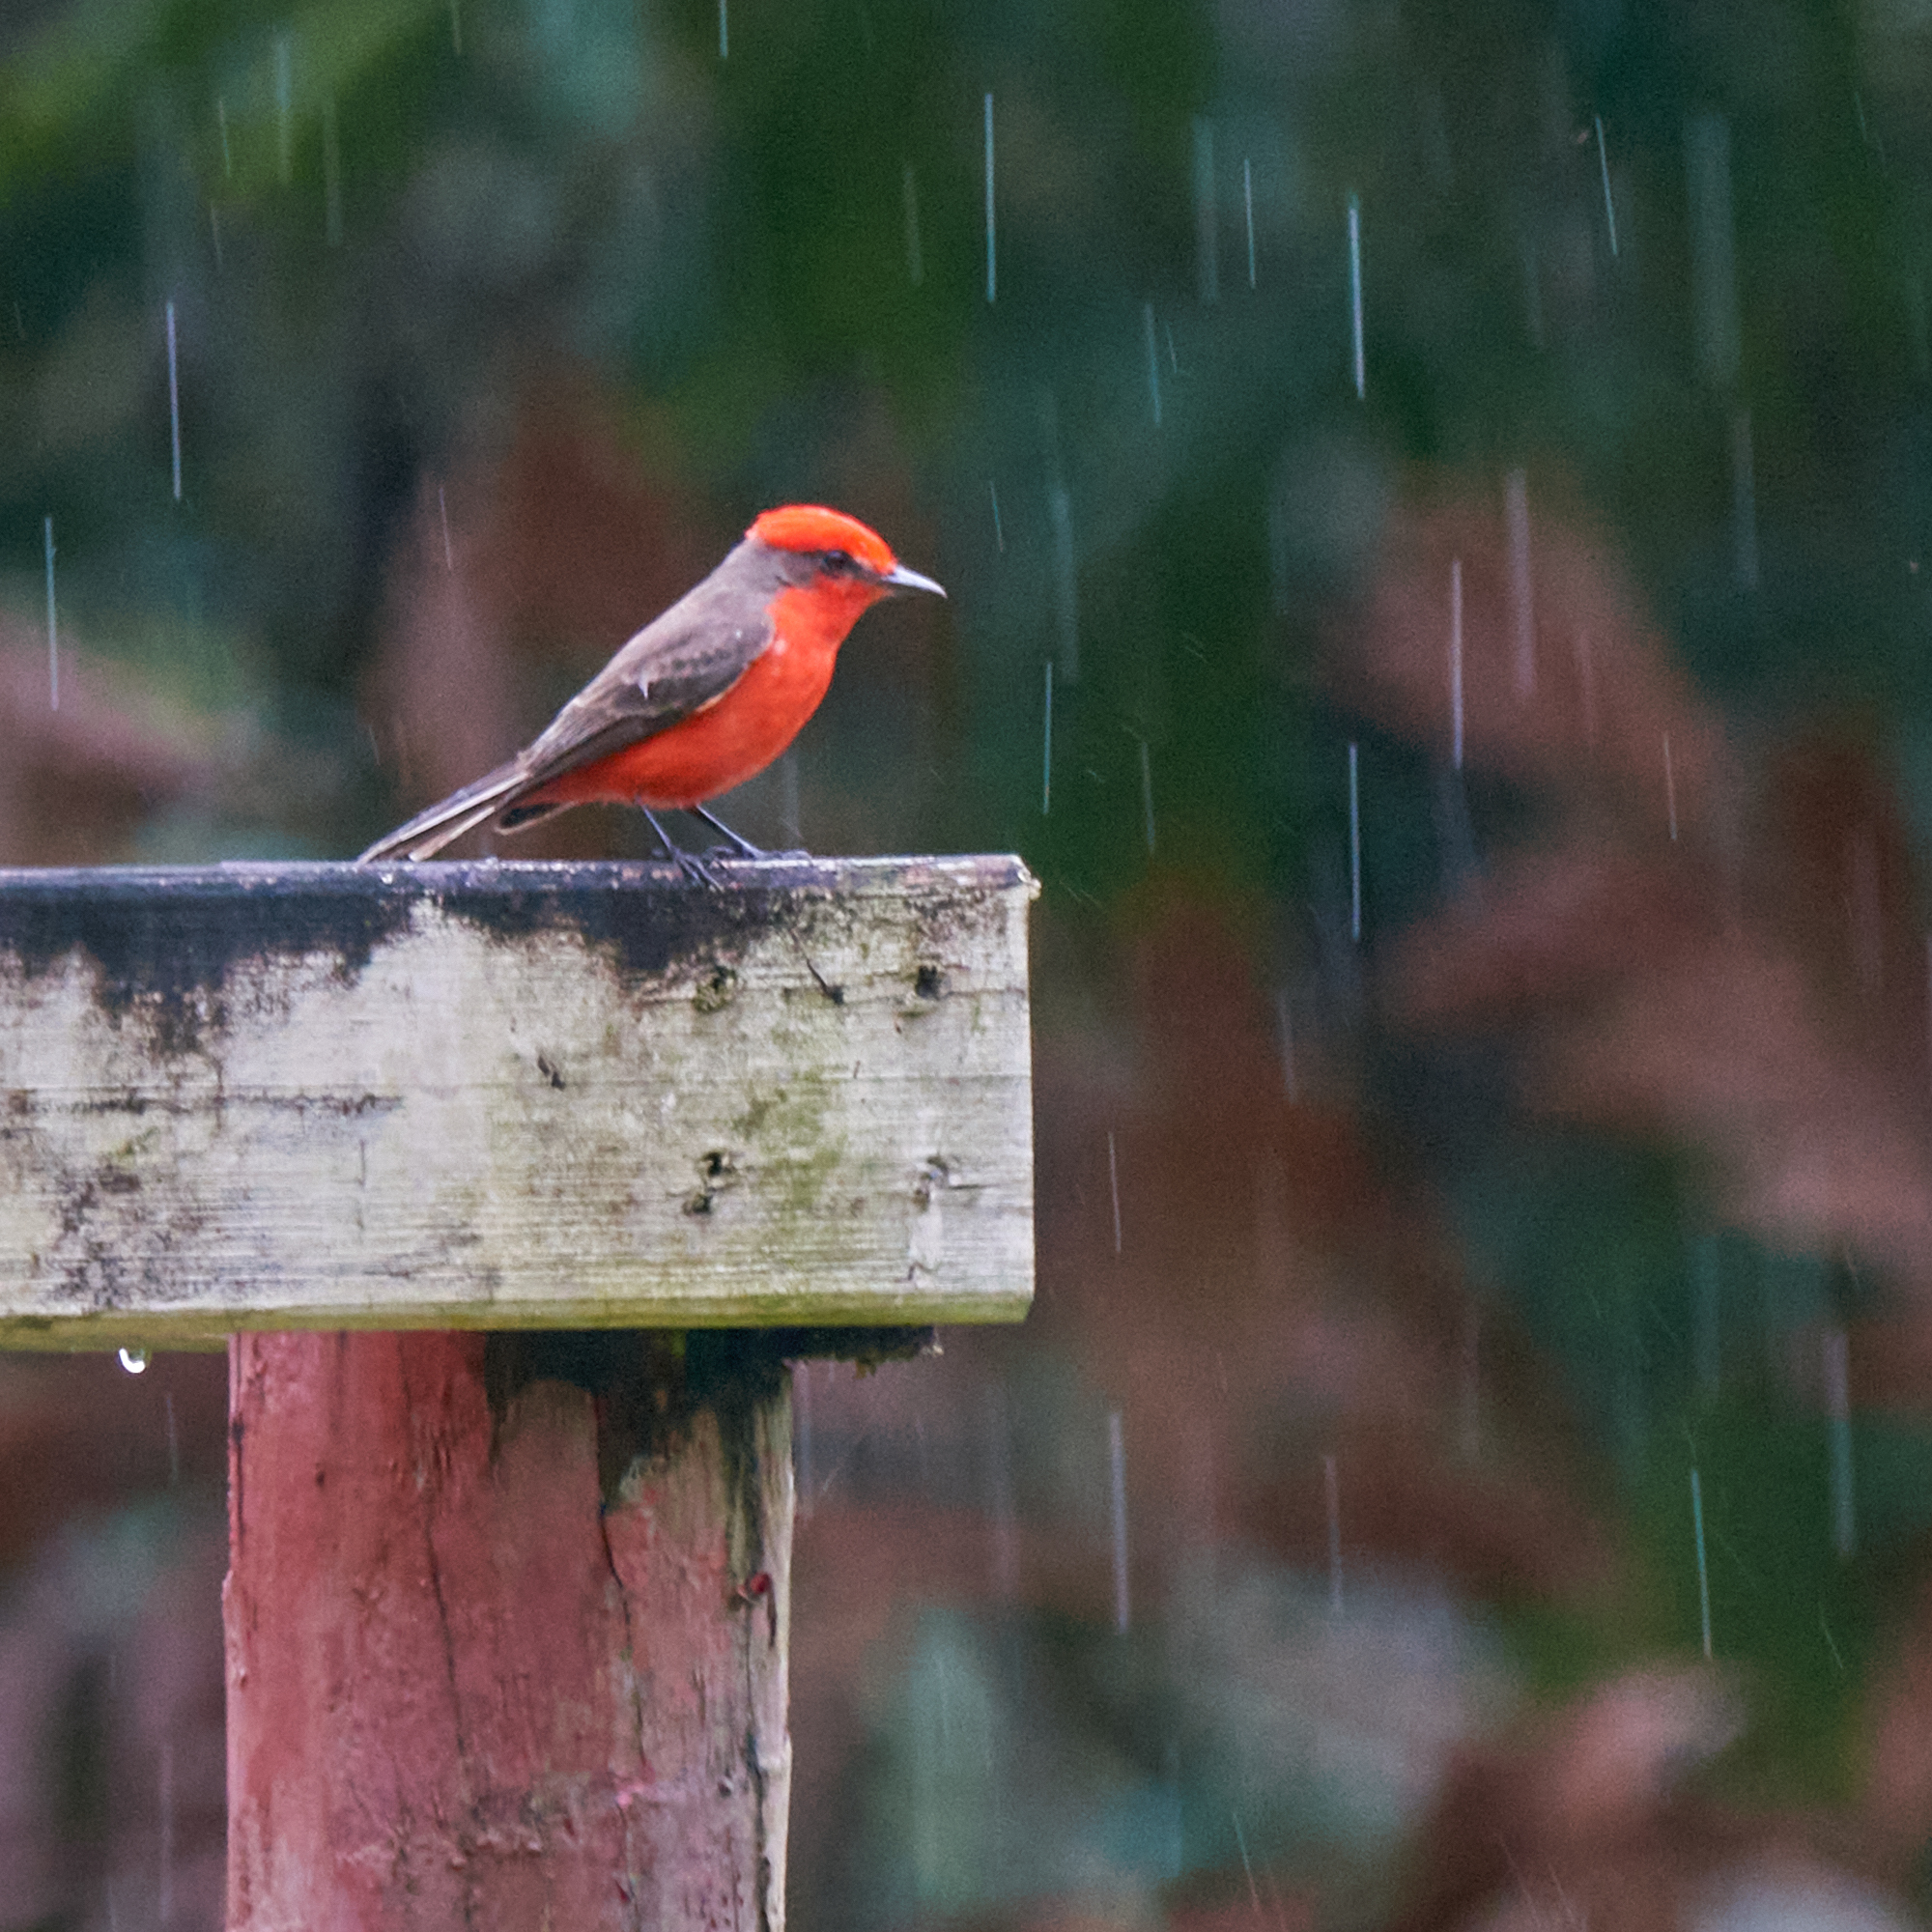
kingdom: Animalia
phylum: Chordata
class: Aves
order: Passeriformes
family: Tyrannidae
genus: Pyrocephalus
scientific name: Pyrocephalus rubinus
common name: Vermilion flycatcher
